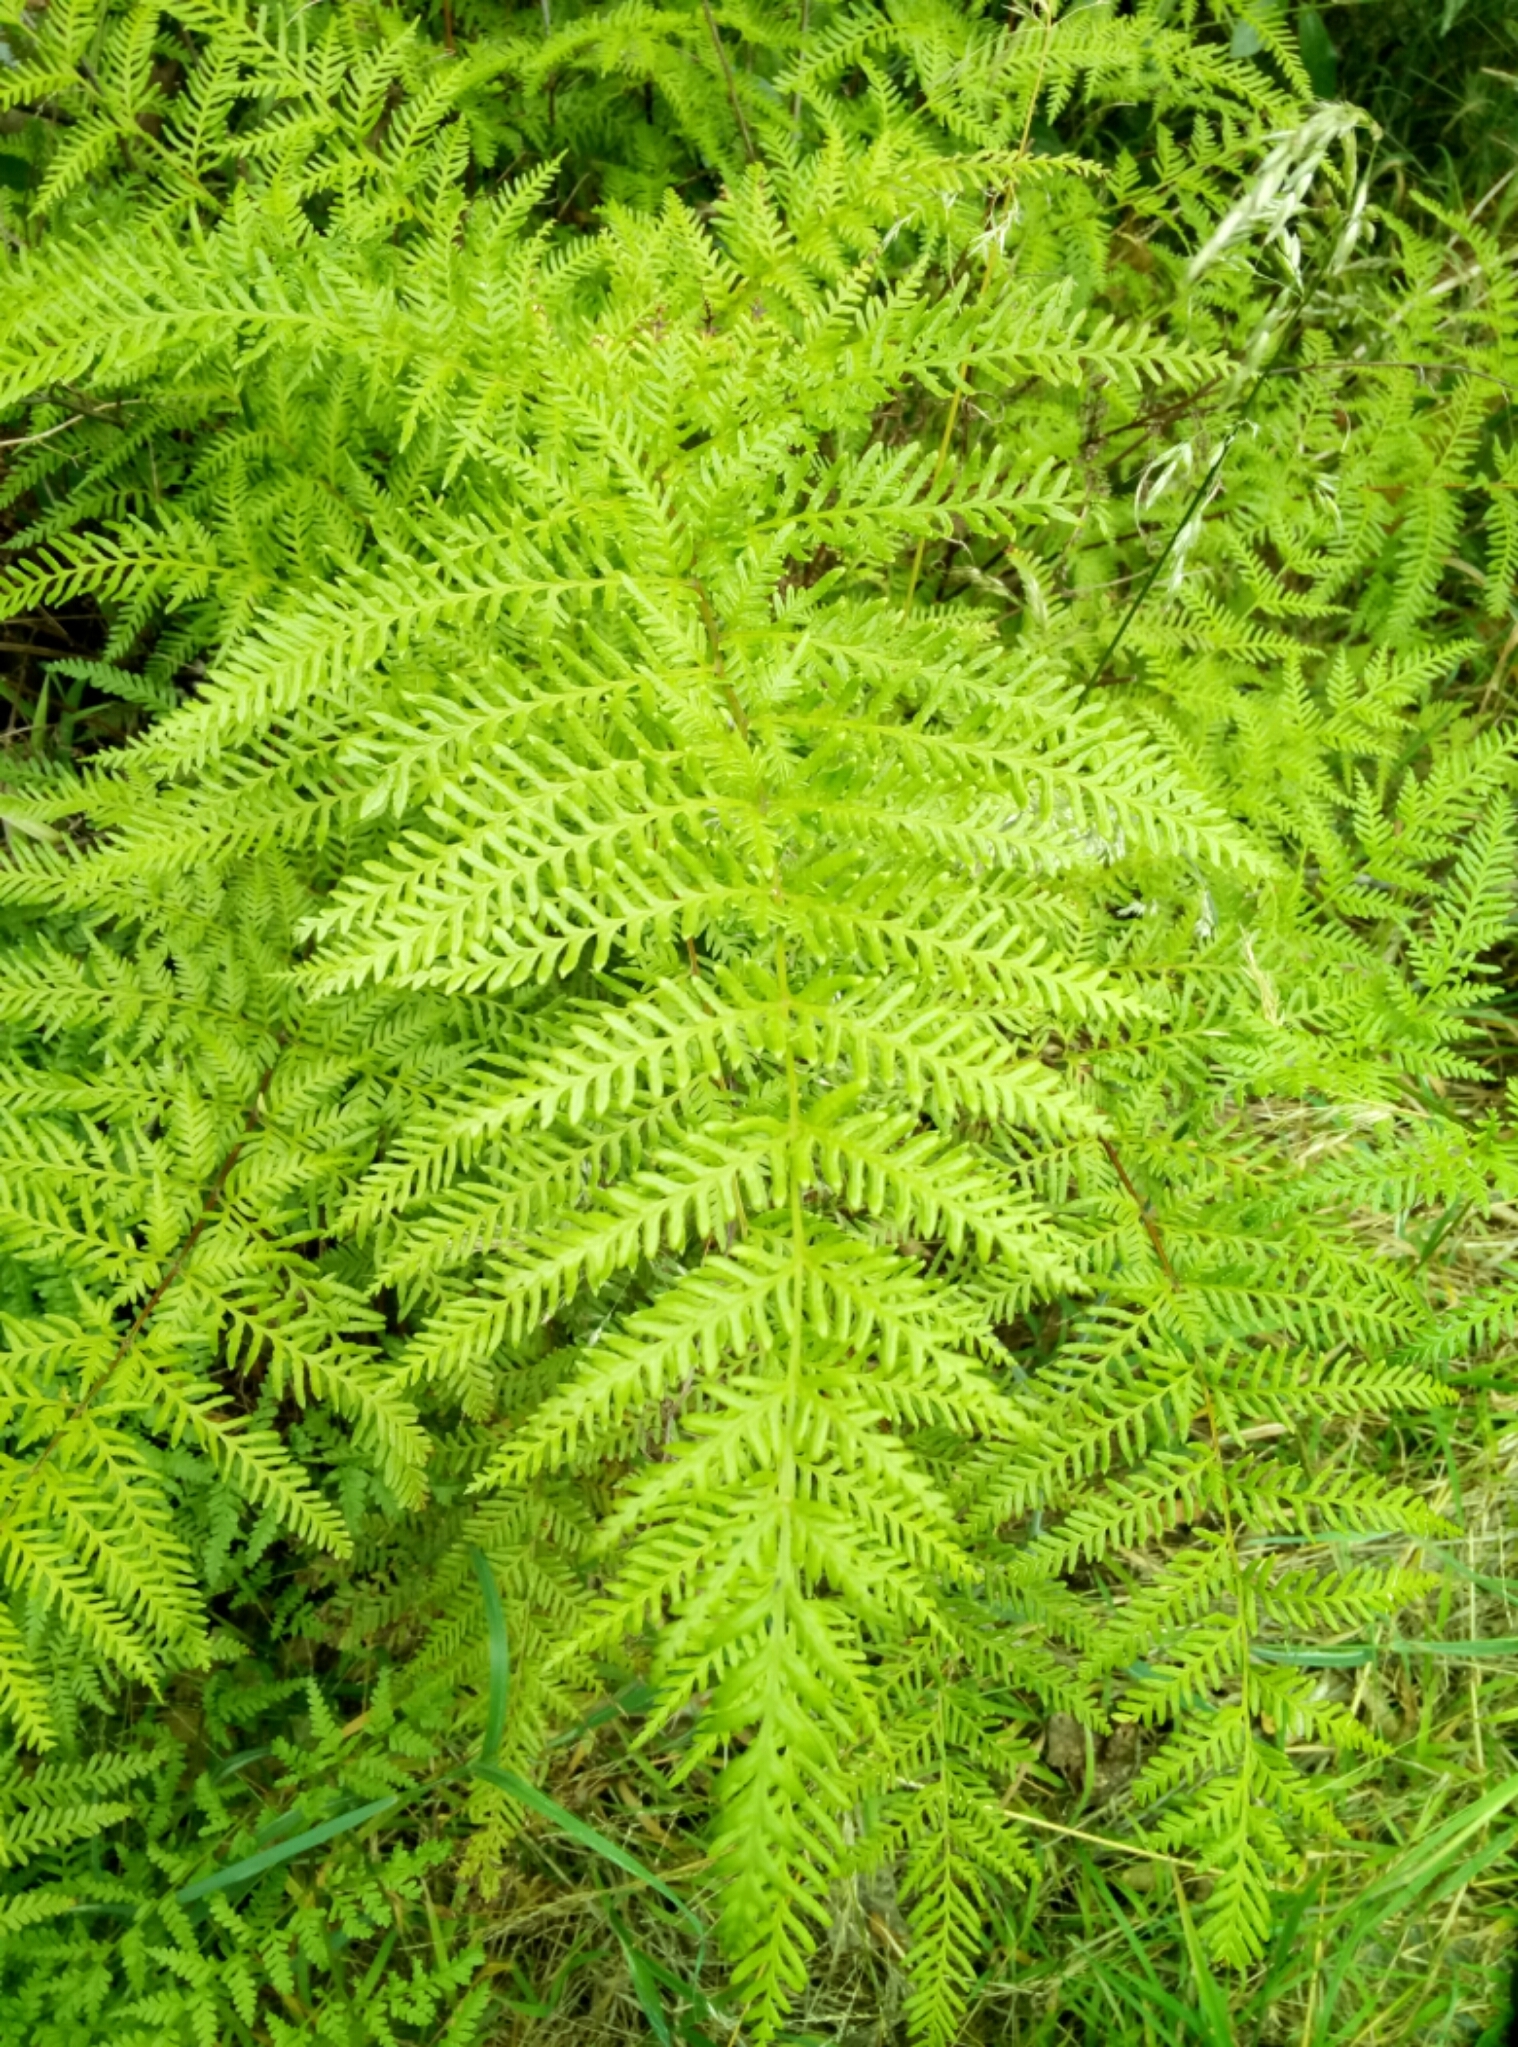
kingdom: Plantae
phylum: Tracheophyta
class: Polypodiopsida
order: Polypodiales
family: Dennstaedtiaceae
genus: Histiopteris
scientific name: Histiopteris incisa
